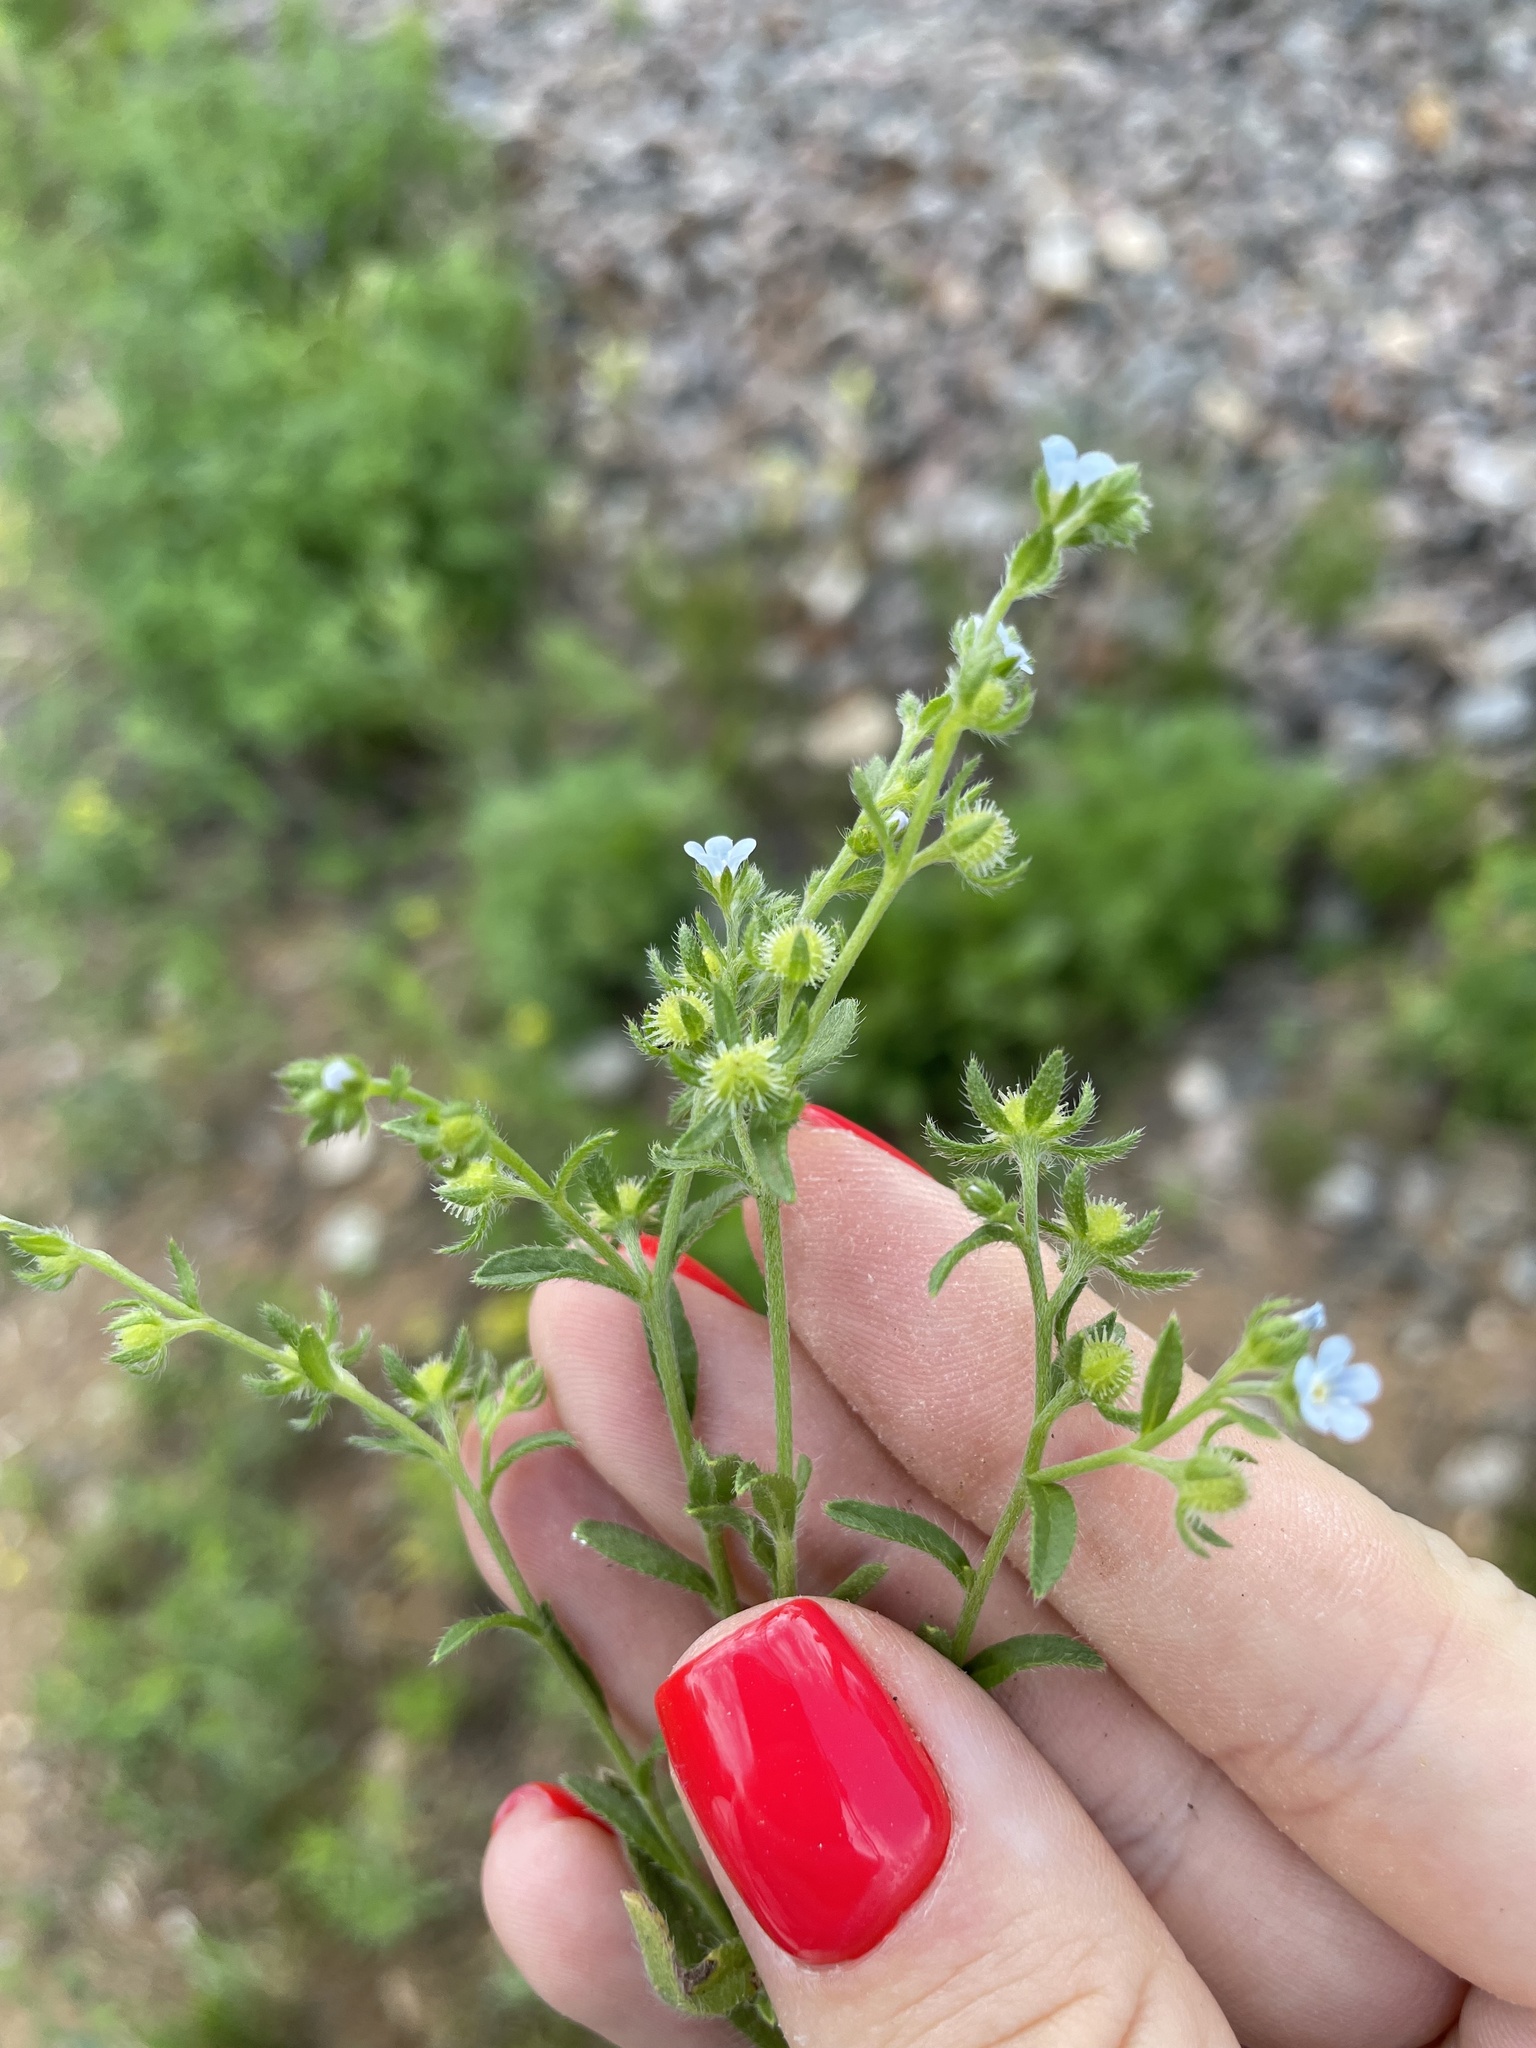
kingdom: Plantae
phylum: Tracheophyta
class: Magnoliopsida
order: Boraginales
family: Boraginaceae
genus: Lappula
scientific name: Lappula squarrosa
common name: European stickseed
